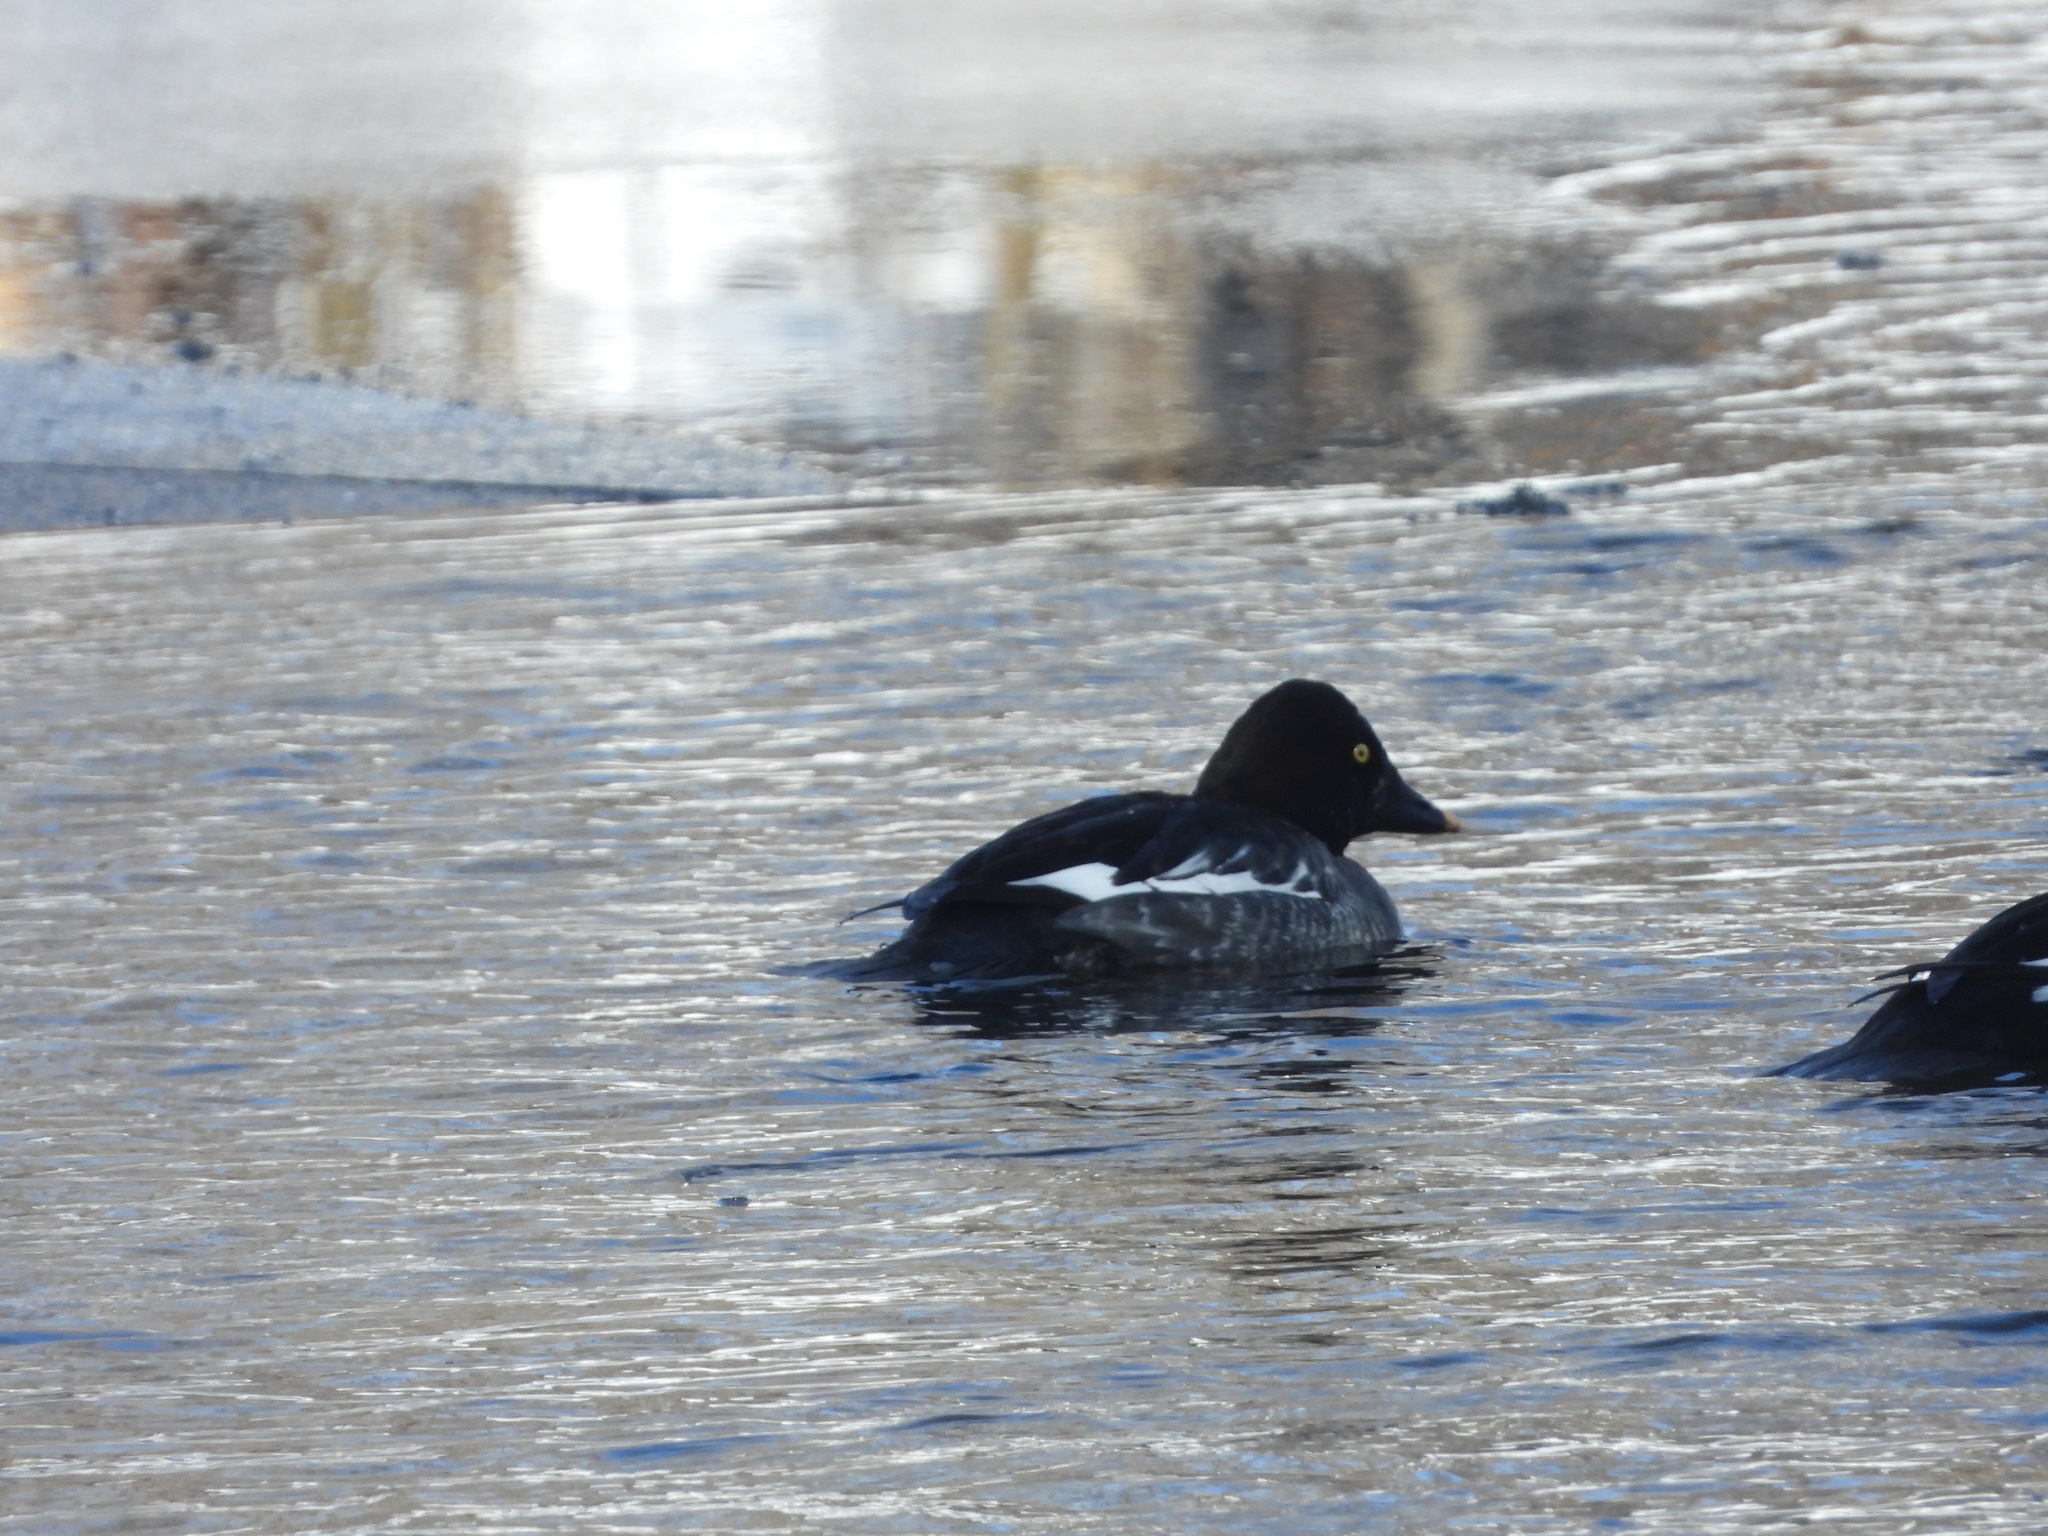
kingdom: Animalia
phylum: Chordata
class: Aves
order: Anseriformes
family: Anatidae
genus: Bucephala
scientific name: Bucephala clangula
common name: Common goldeneye
